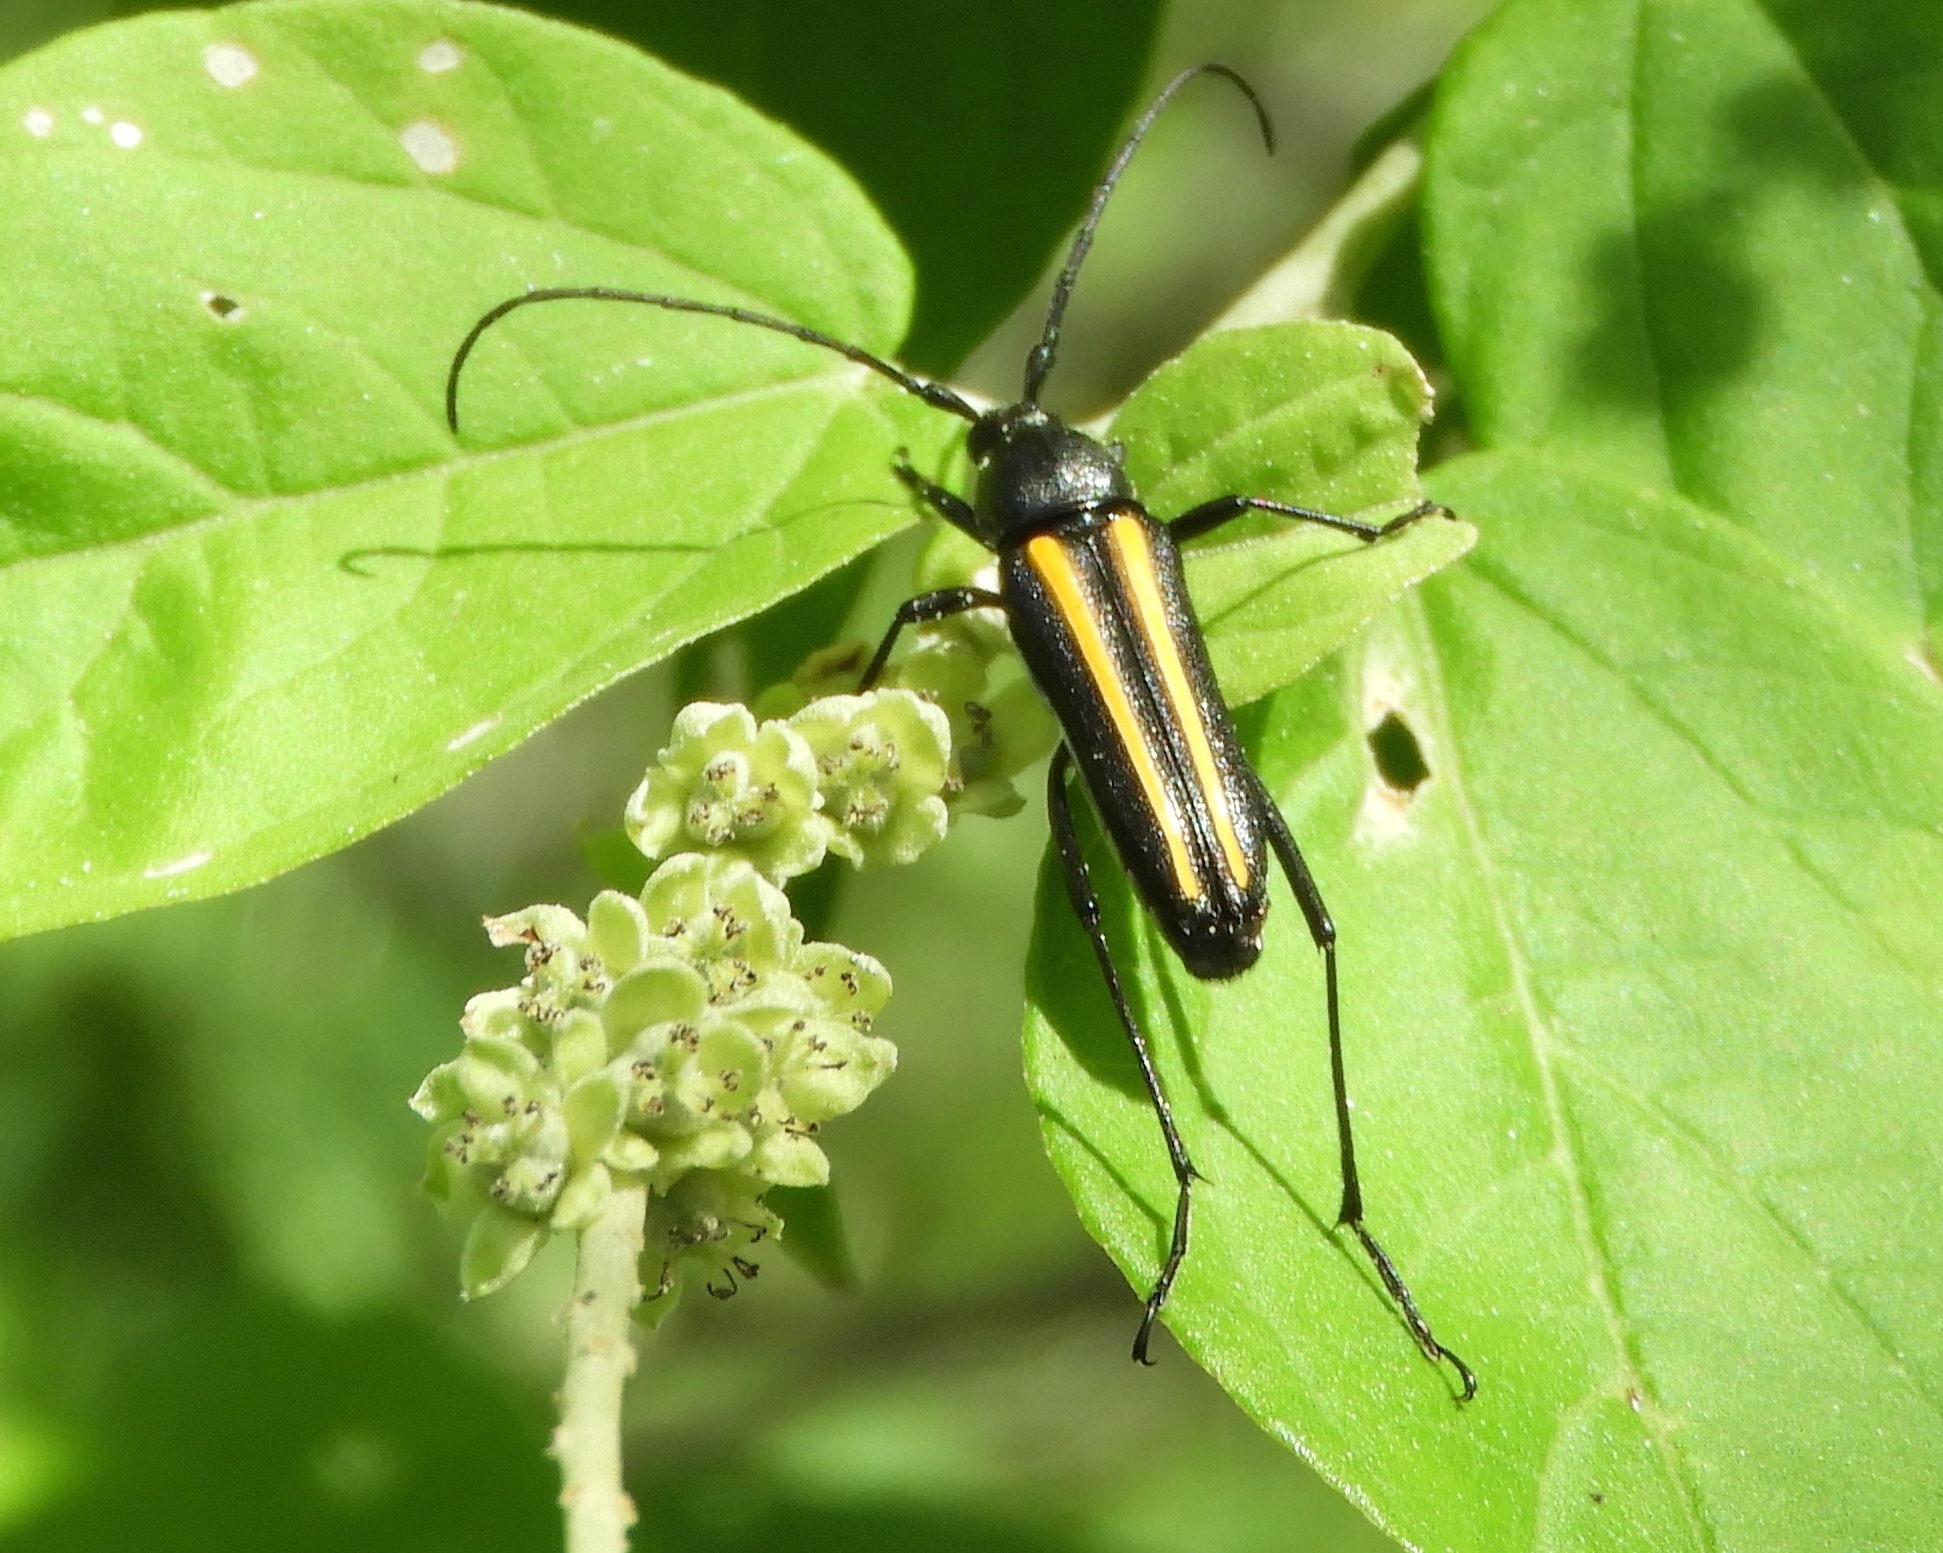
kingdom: Animalia
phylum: Arthropoda
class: Insecta
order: Coleoptera
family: Cerambycidae
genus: Lophalia
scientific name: Lophalia prolata
